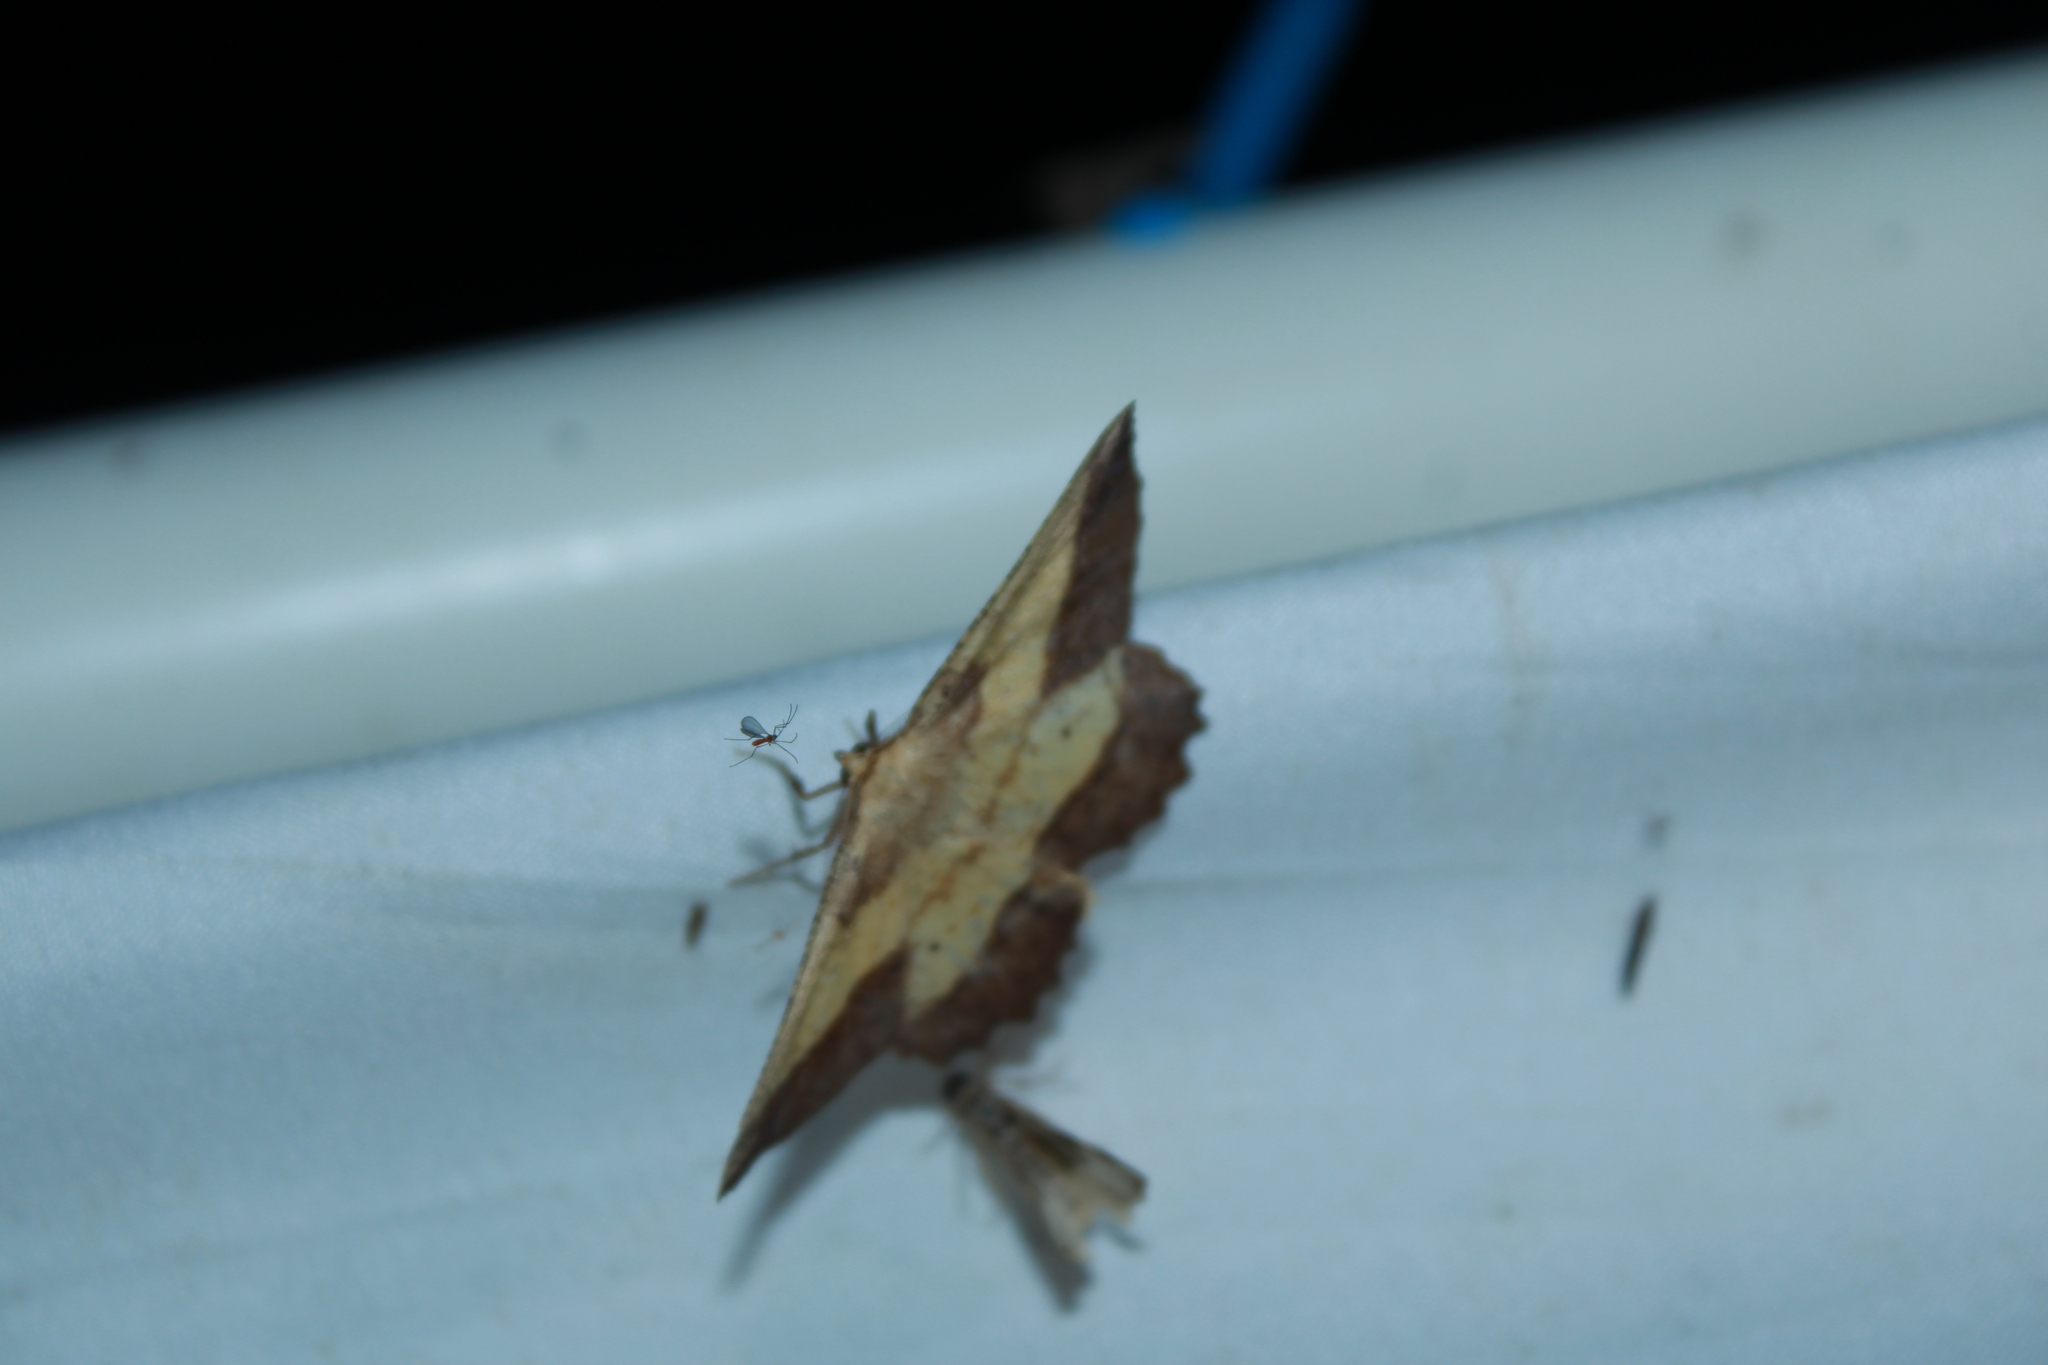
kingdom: Animalia
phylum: Arthropoda
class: Insecta
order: Lepidoptera
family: Geometridae
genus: Euchlaena
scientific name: Euchlaena serrata
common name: Saw wing
